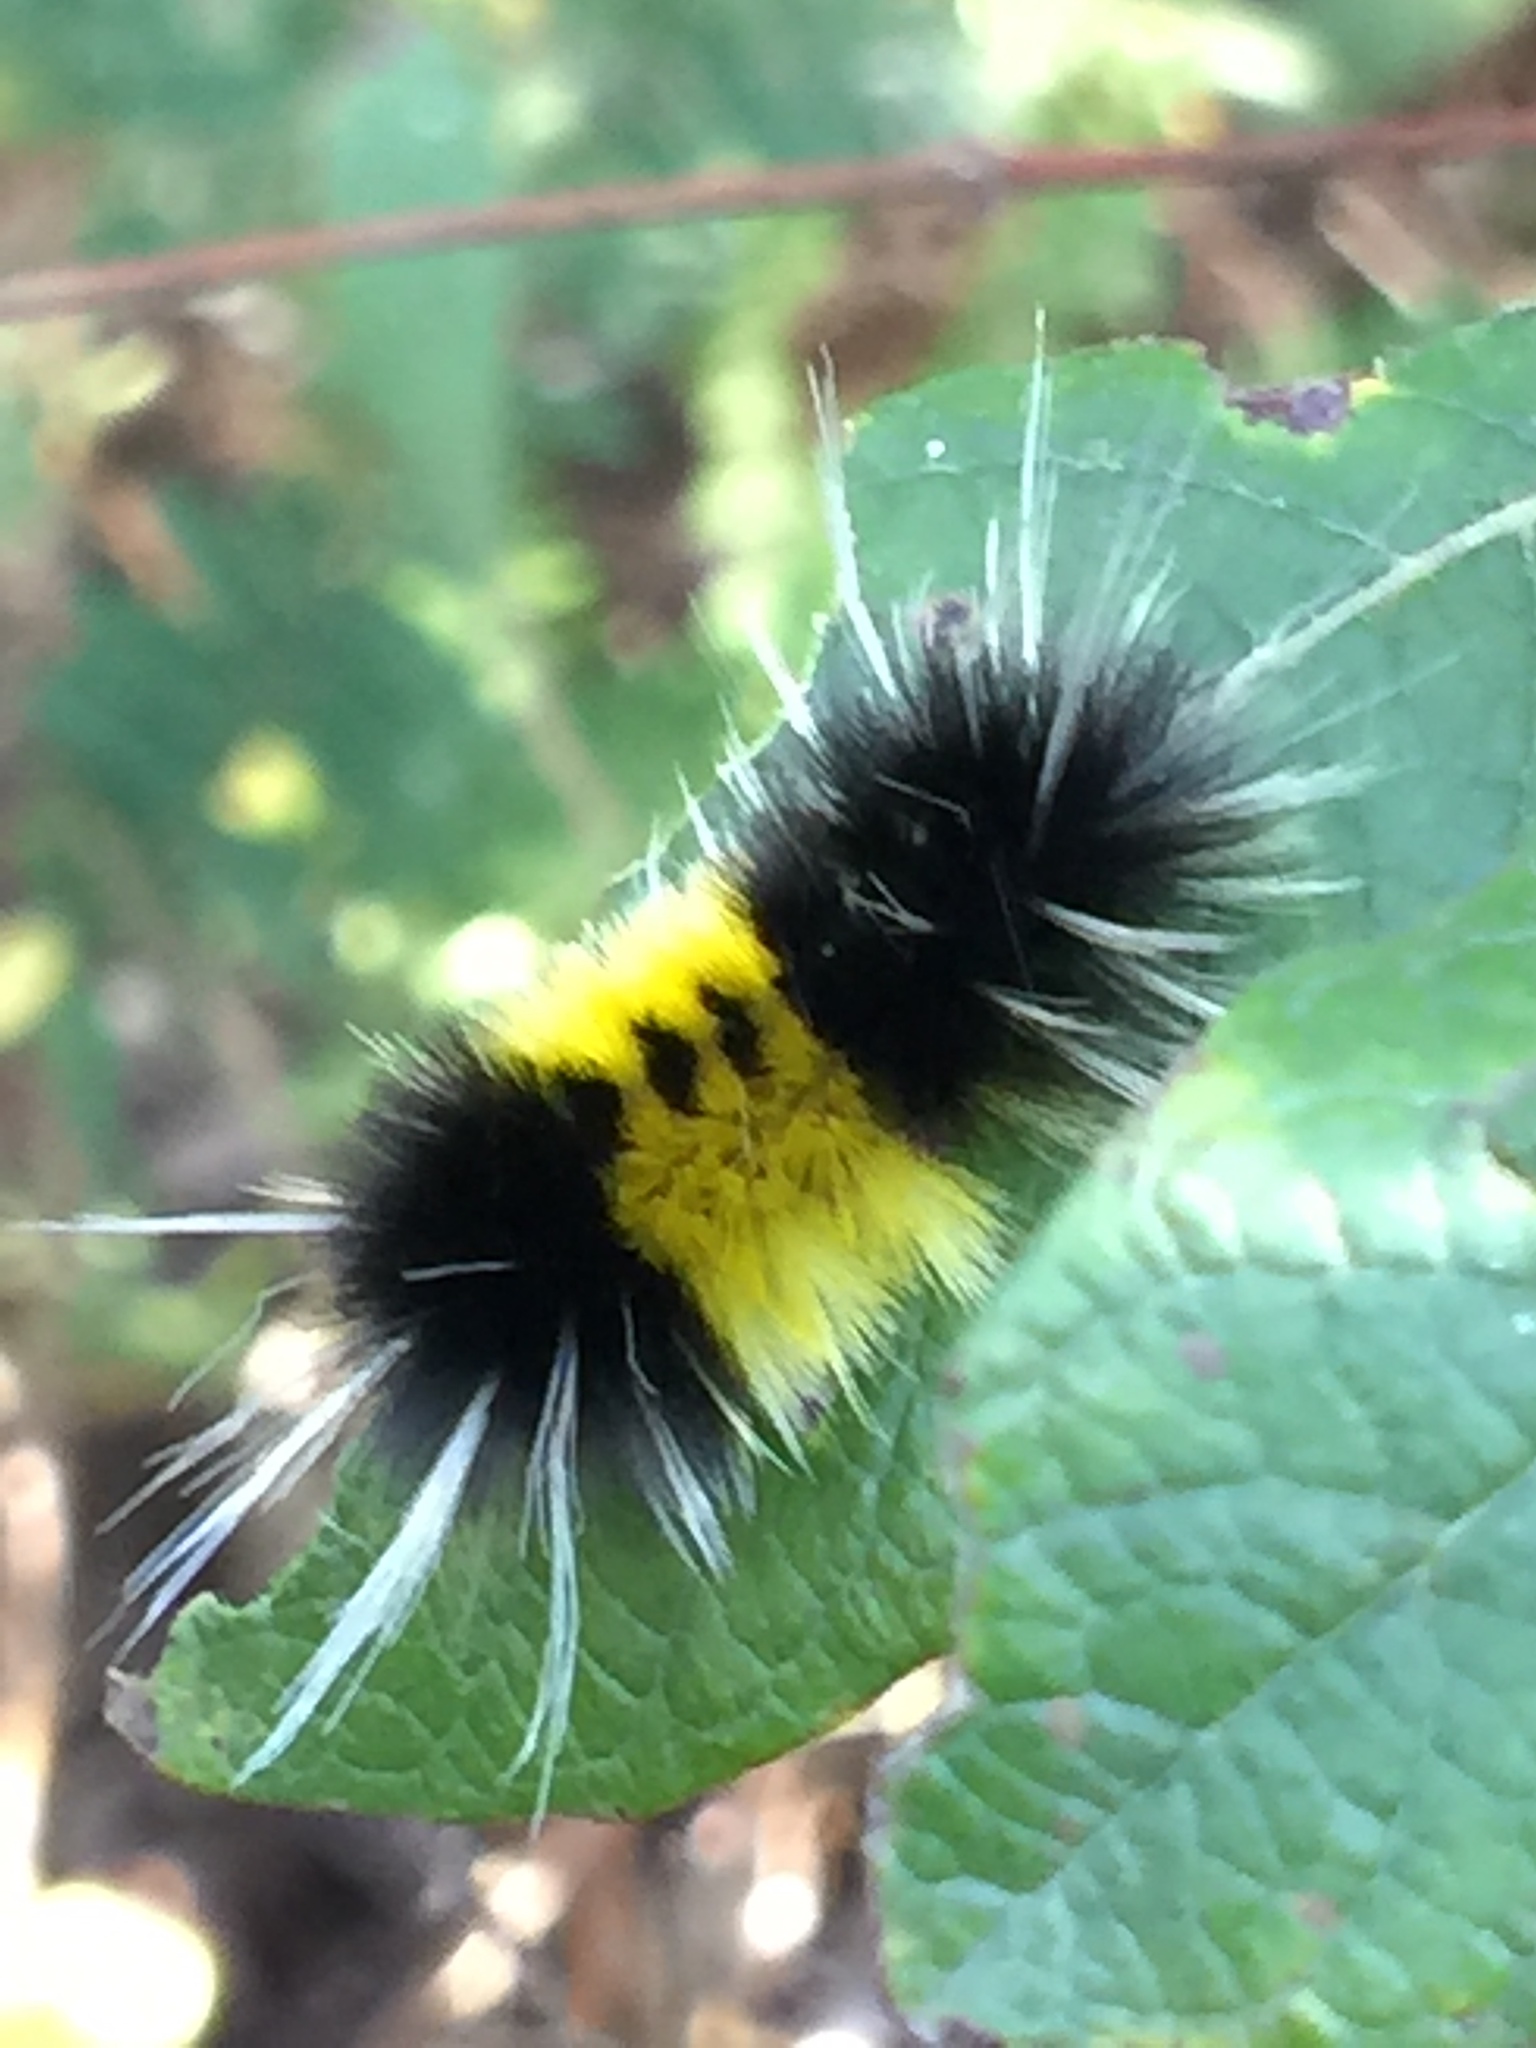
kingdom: Animalia
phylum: Arthropoda
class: Insecta
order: Lepidoptera
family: Erebidae
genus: Lophocampa
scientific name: Lophocampa maculata
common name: Spotted tussock moth
